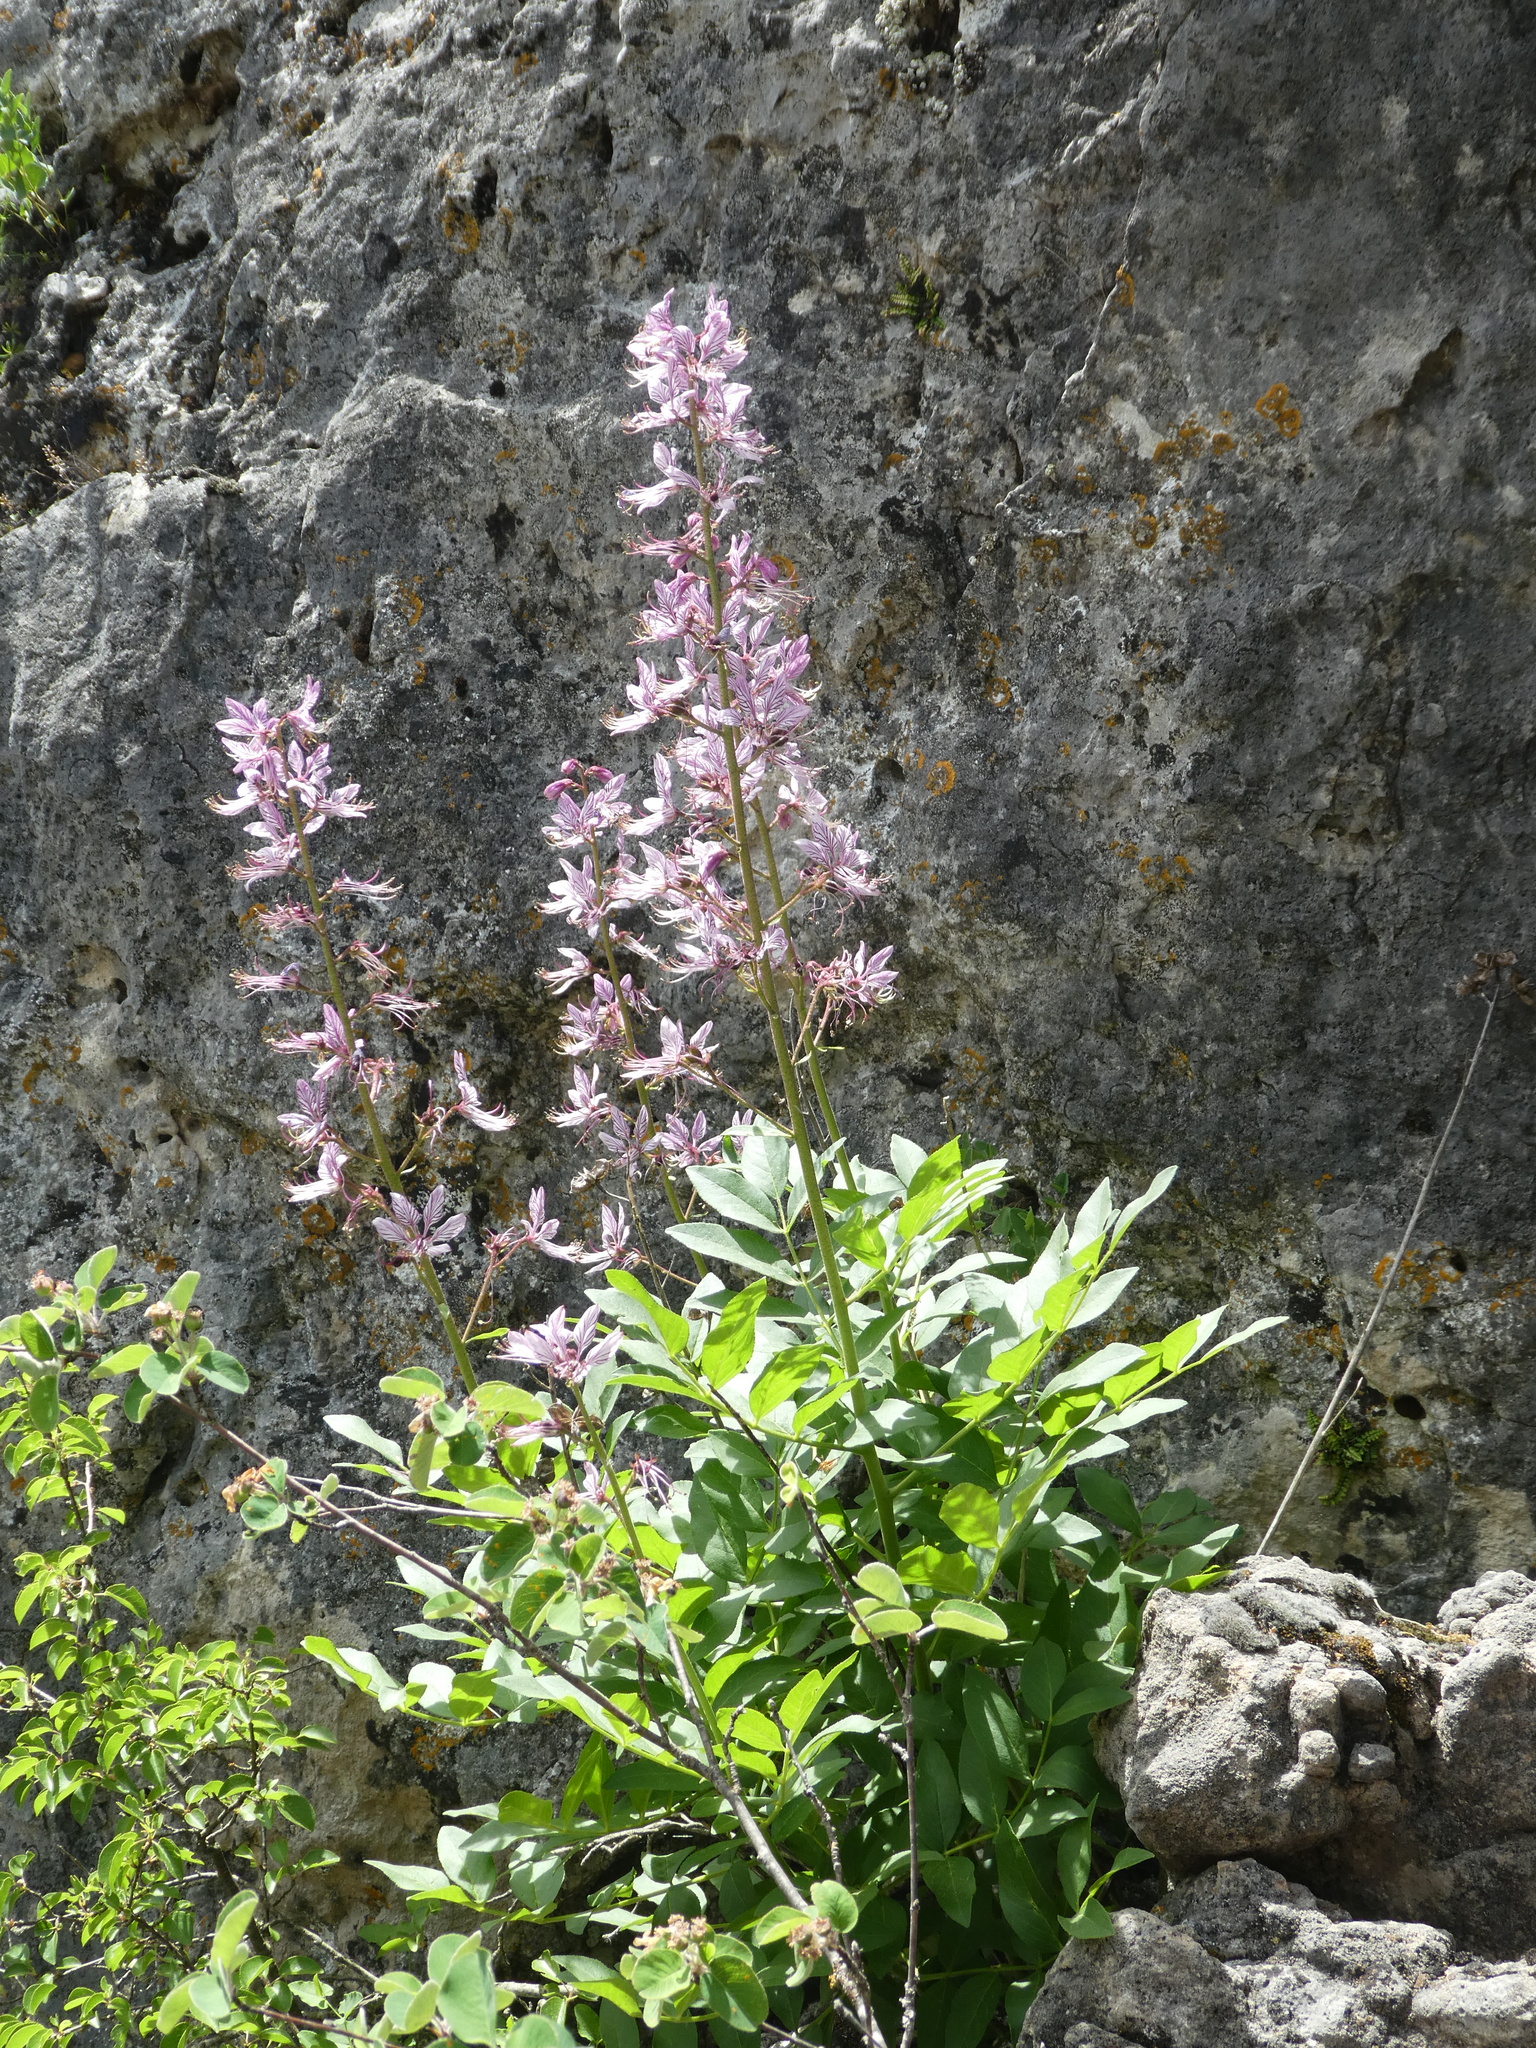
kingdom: Plantae
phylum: Tracheophyta
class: Magnoliopsida
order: Sapindales
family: Rutaceae
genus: Dictamnus
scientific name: Dictamnus albus
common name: Gasplant
